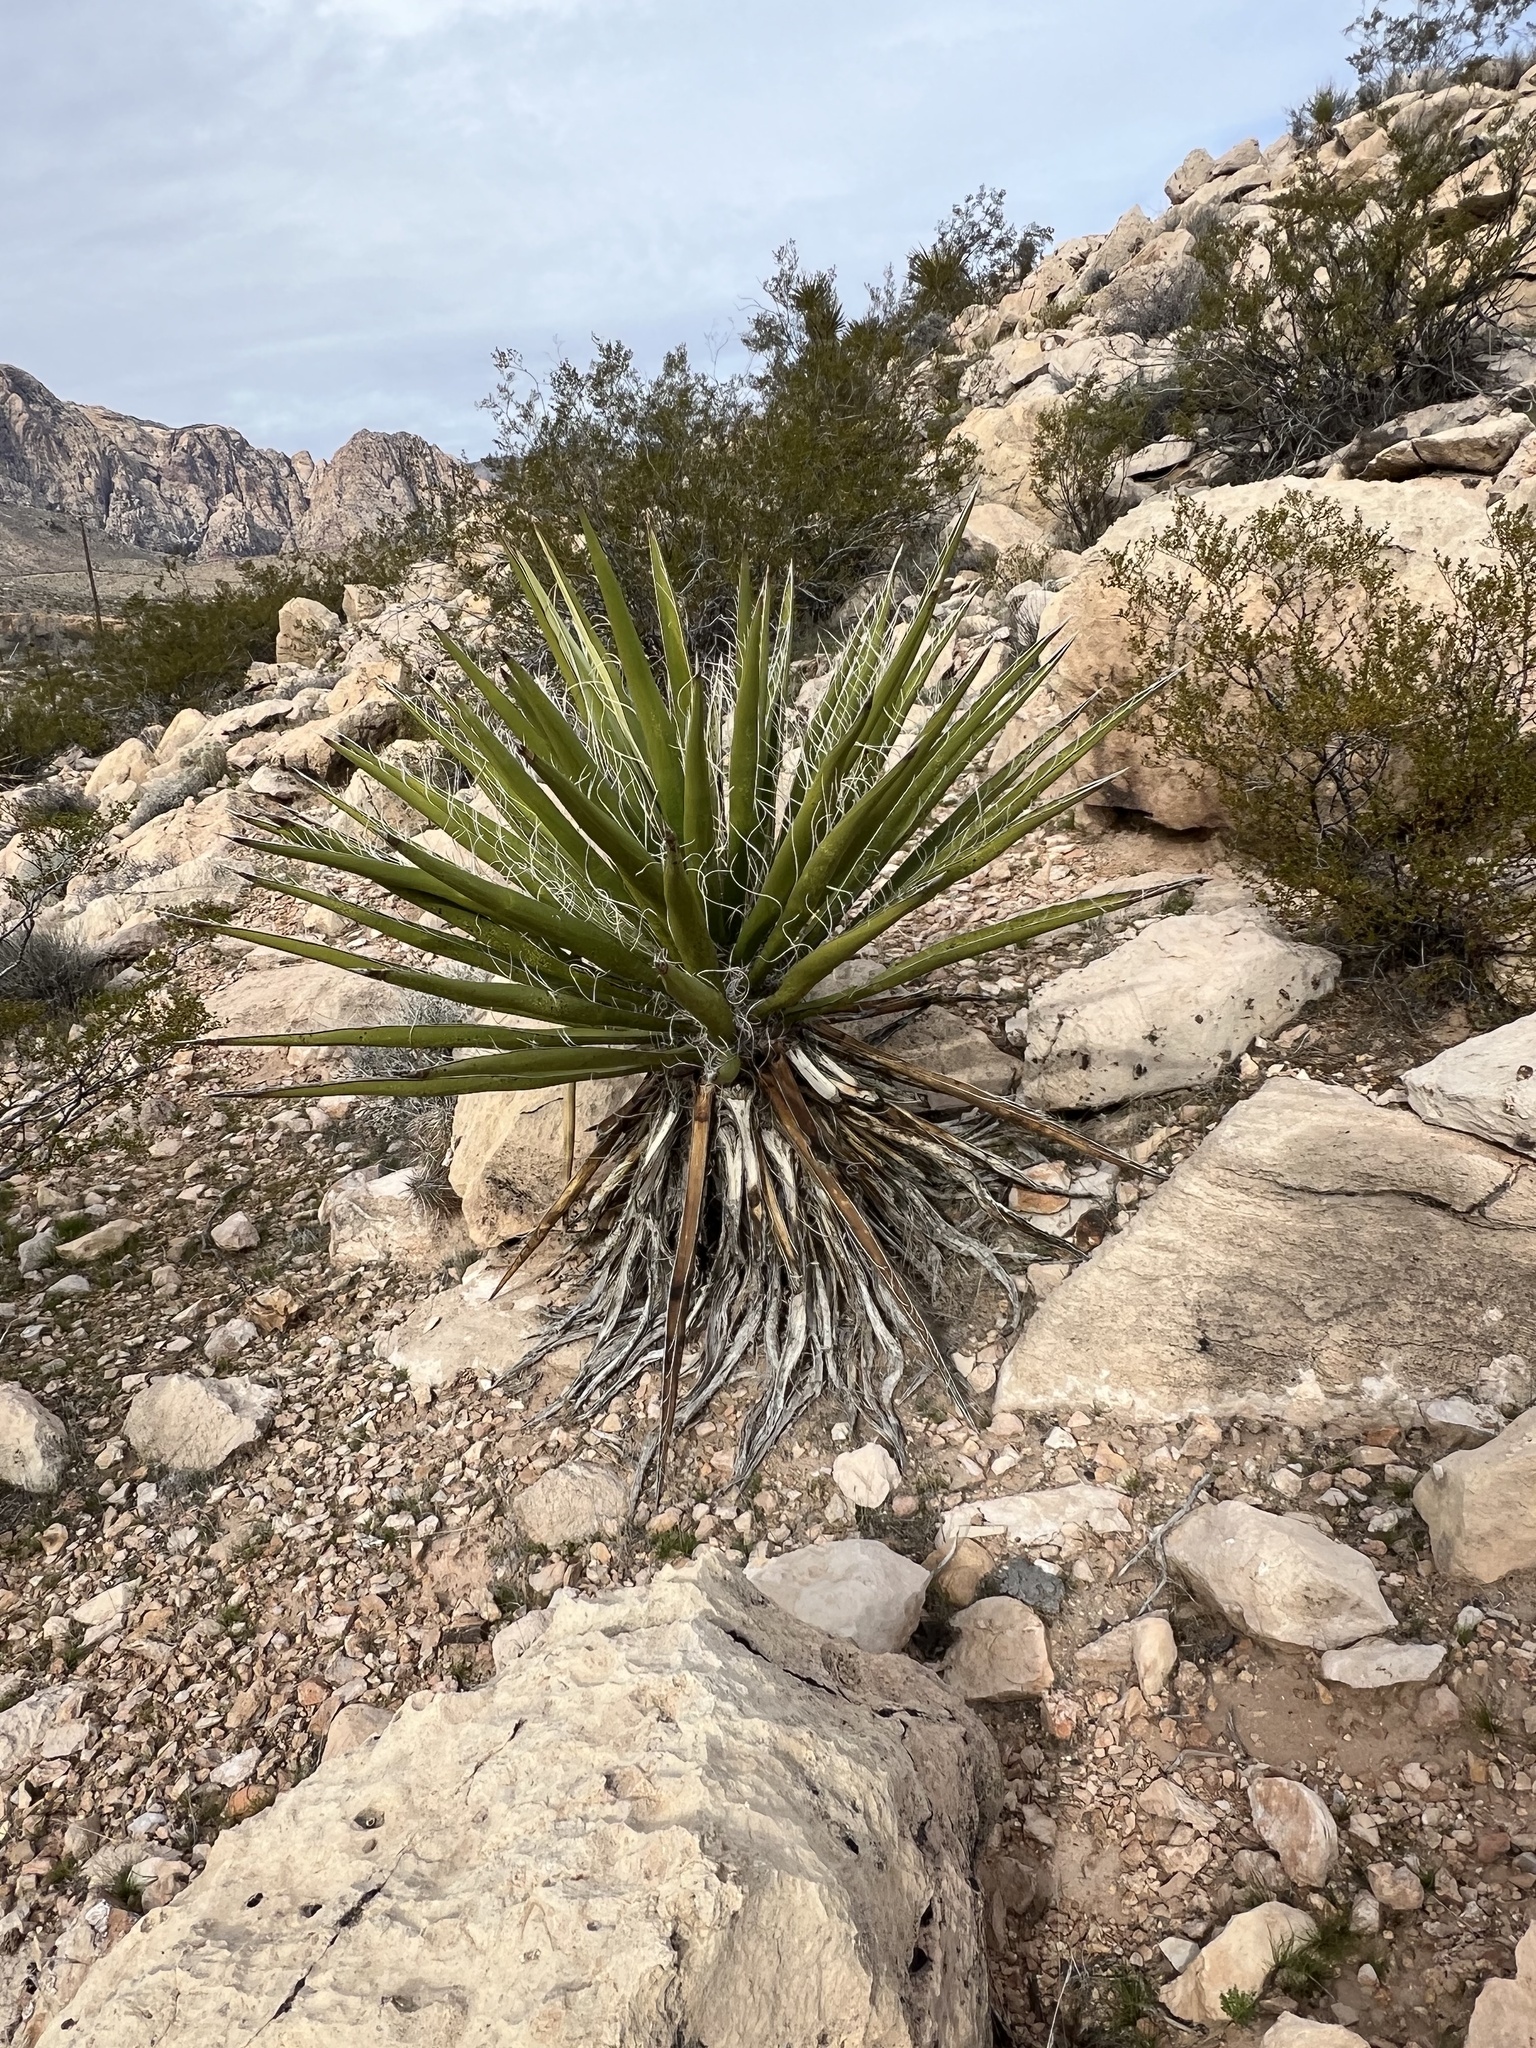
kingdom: Plantae
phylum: Tracheophyta
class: Liliopsida
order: Asparagales
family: Asparagaceae
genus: Yucca
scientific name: Yucca schidigera
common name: Mojave yucca
